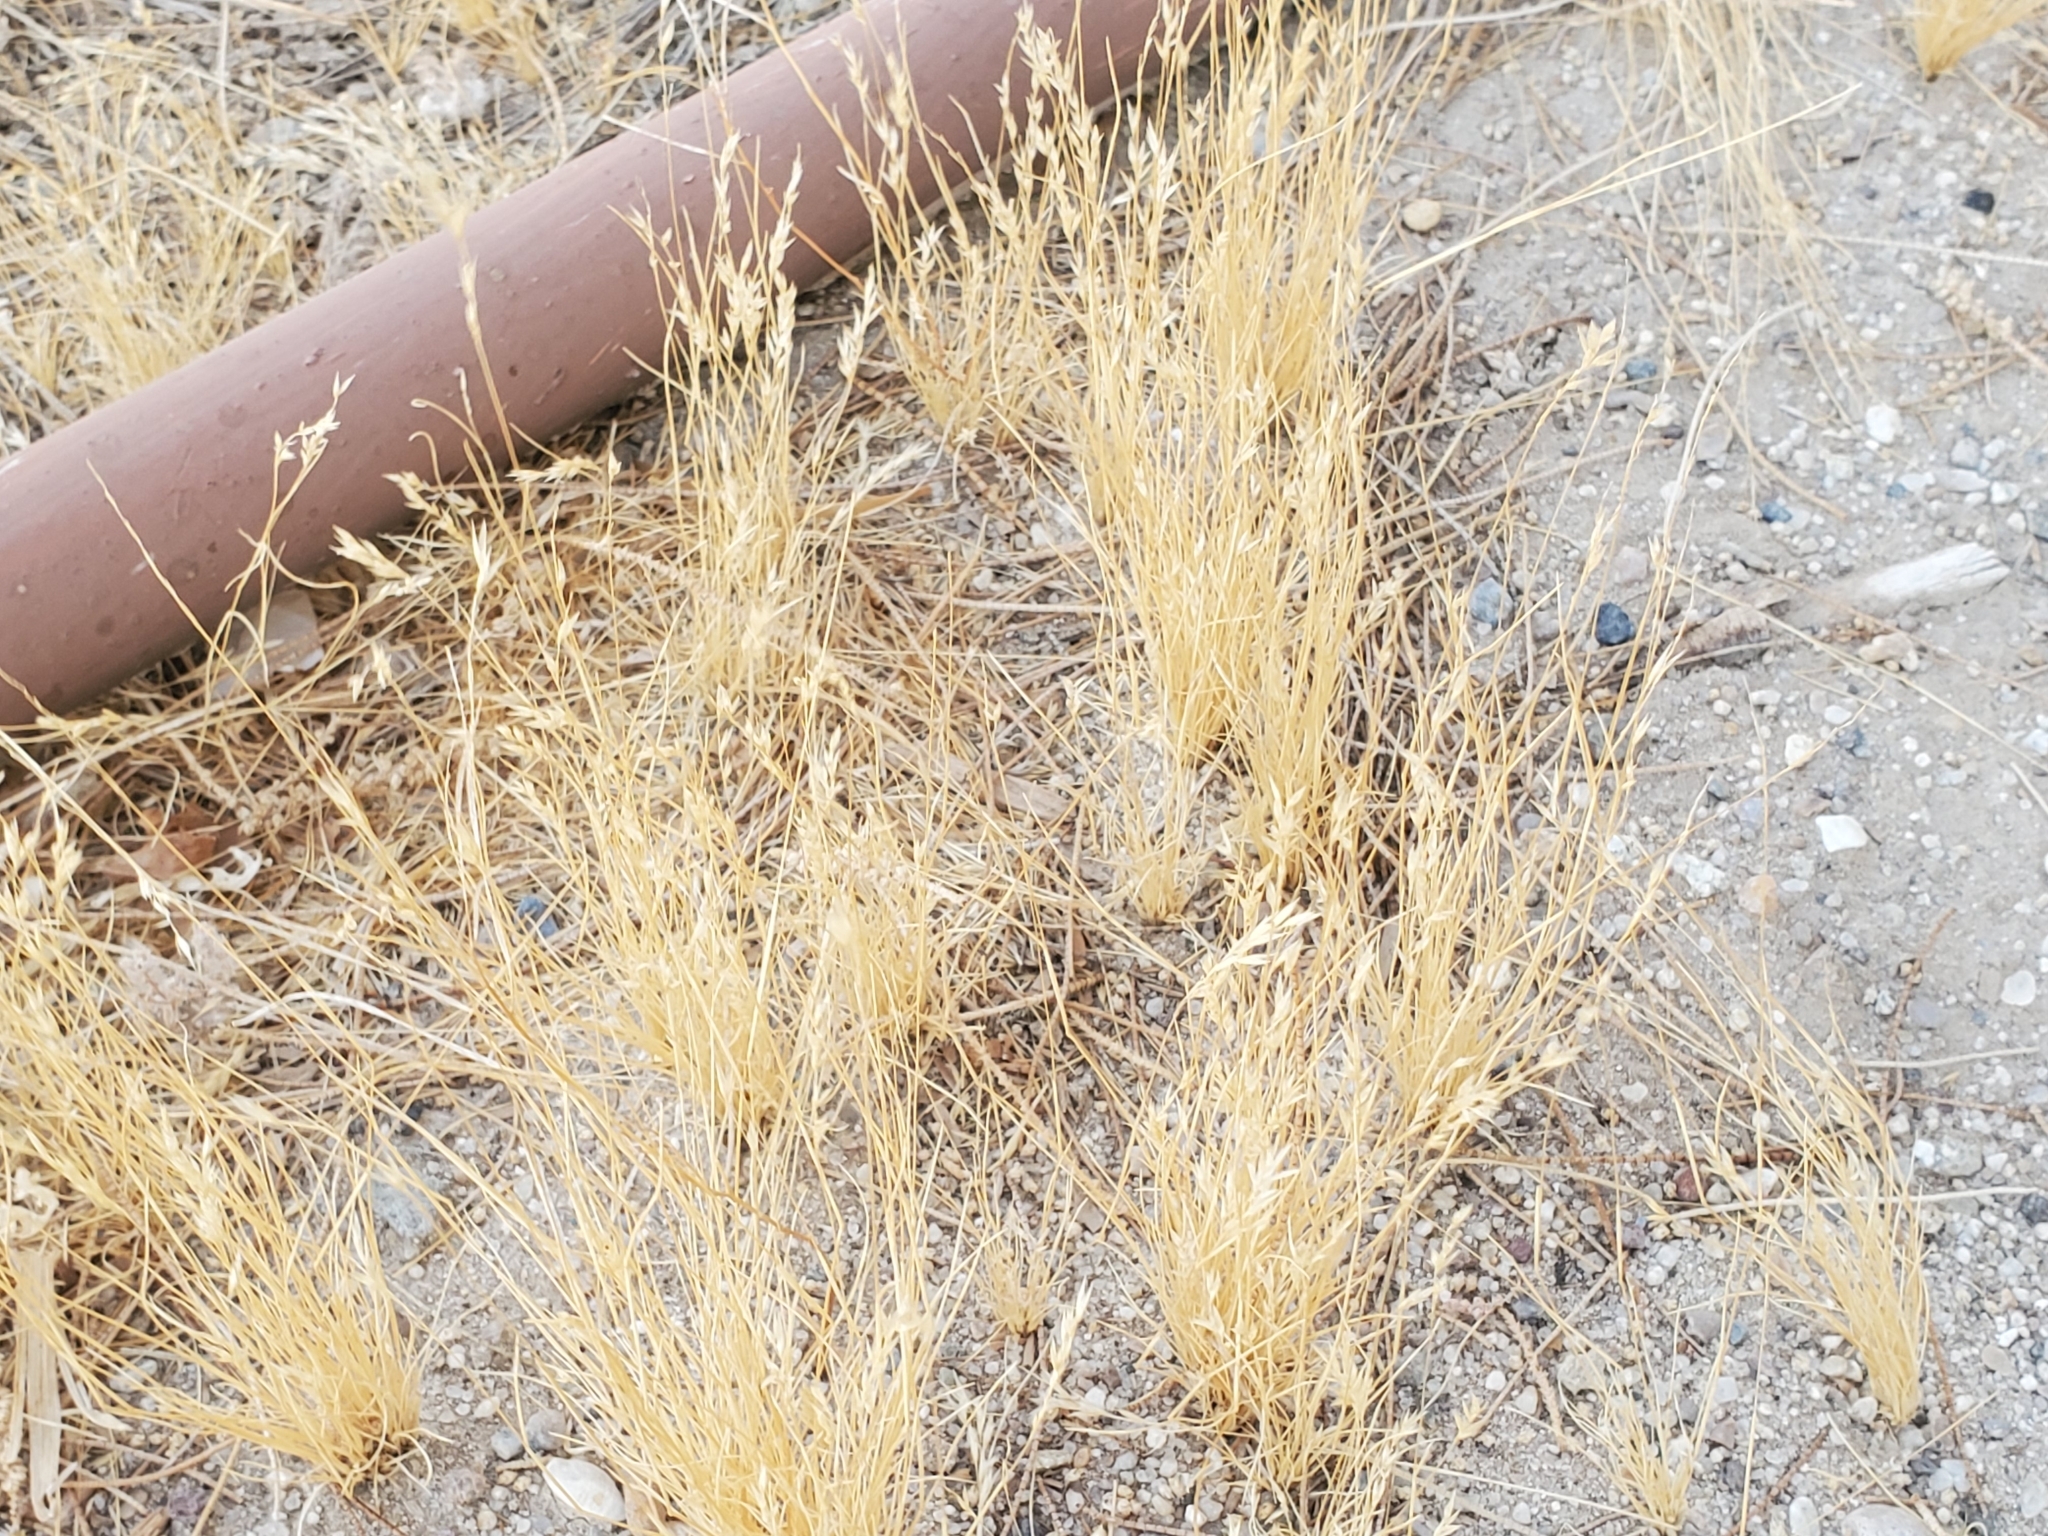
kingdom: Plantae
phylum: Tracheophyta
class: Liliopsida
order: Poales
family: Poaceae
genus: Schismus
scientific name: Schismus barbatus
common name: Kelch-grass
